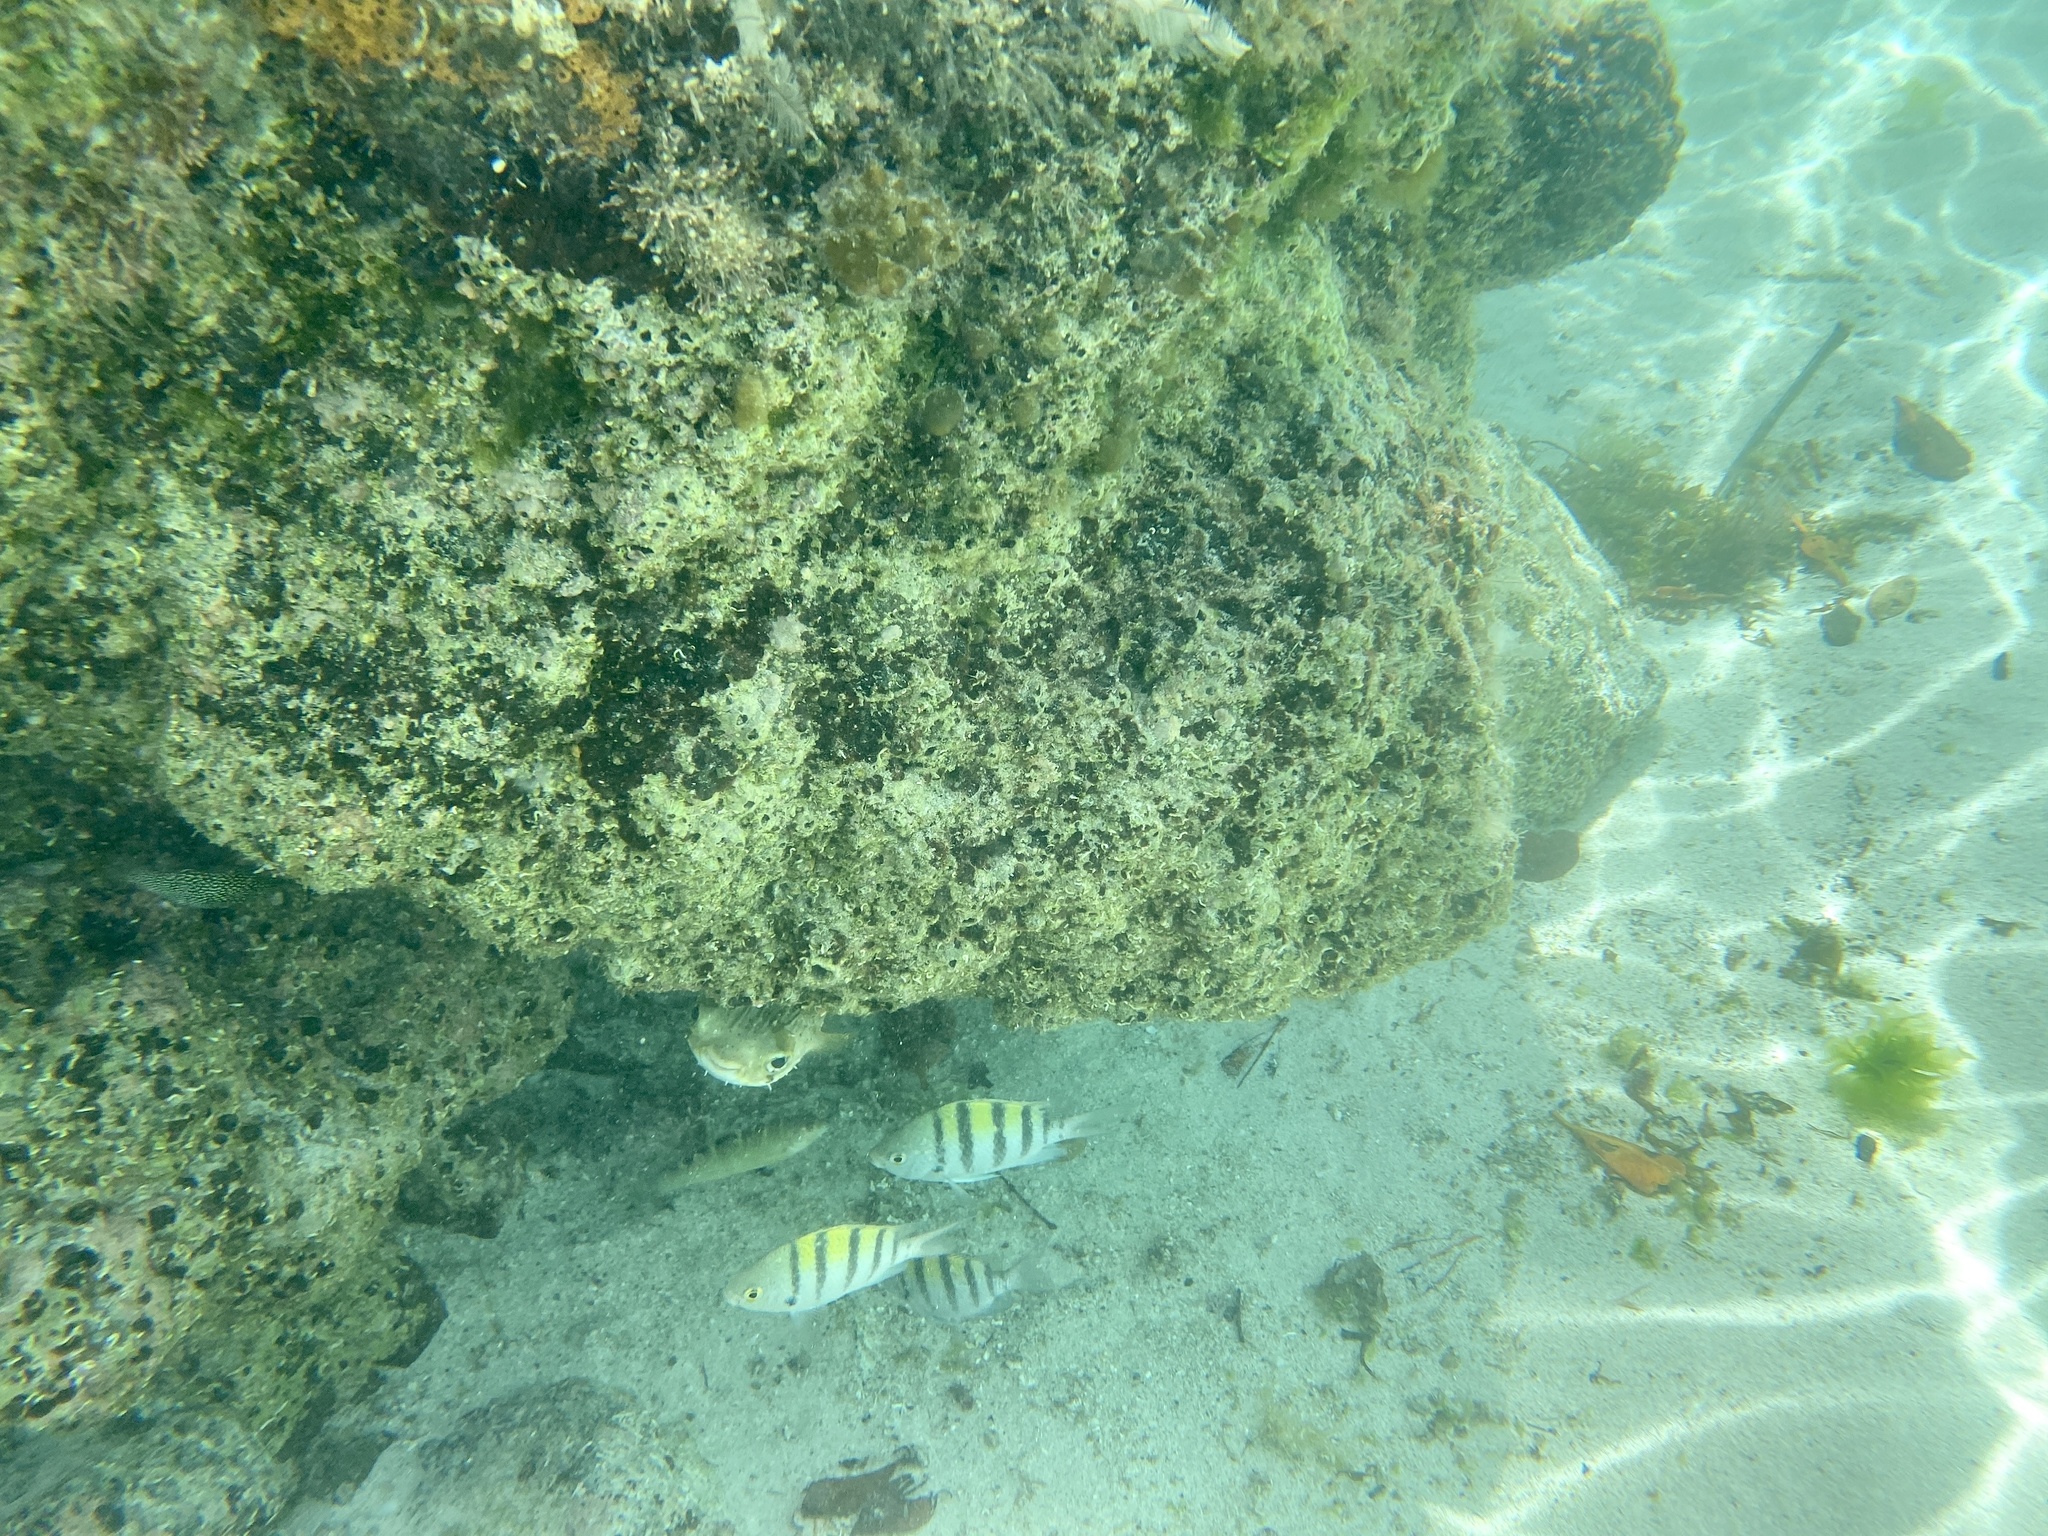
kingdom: Animalia
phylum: Chordata
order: Tetraodontiformes
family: Diodontidae
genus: Diodon
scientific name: Diodon holocanthus
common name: Balloonfish
